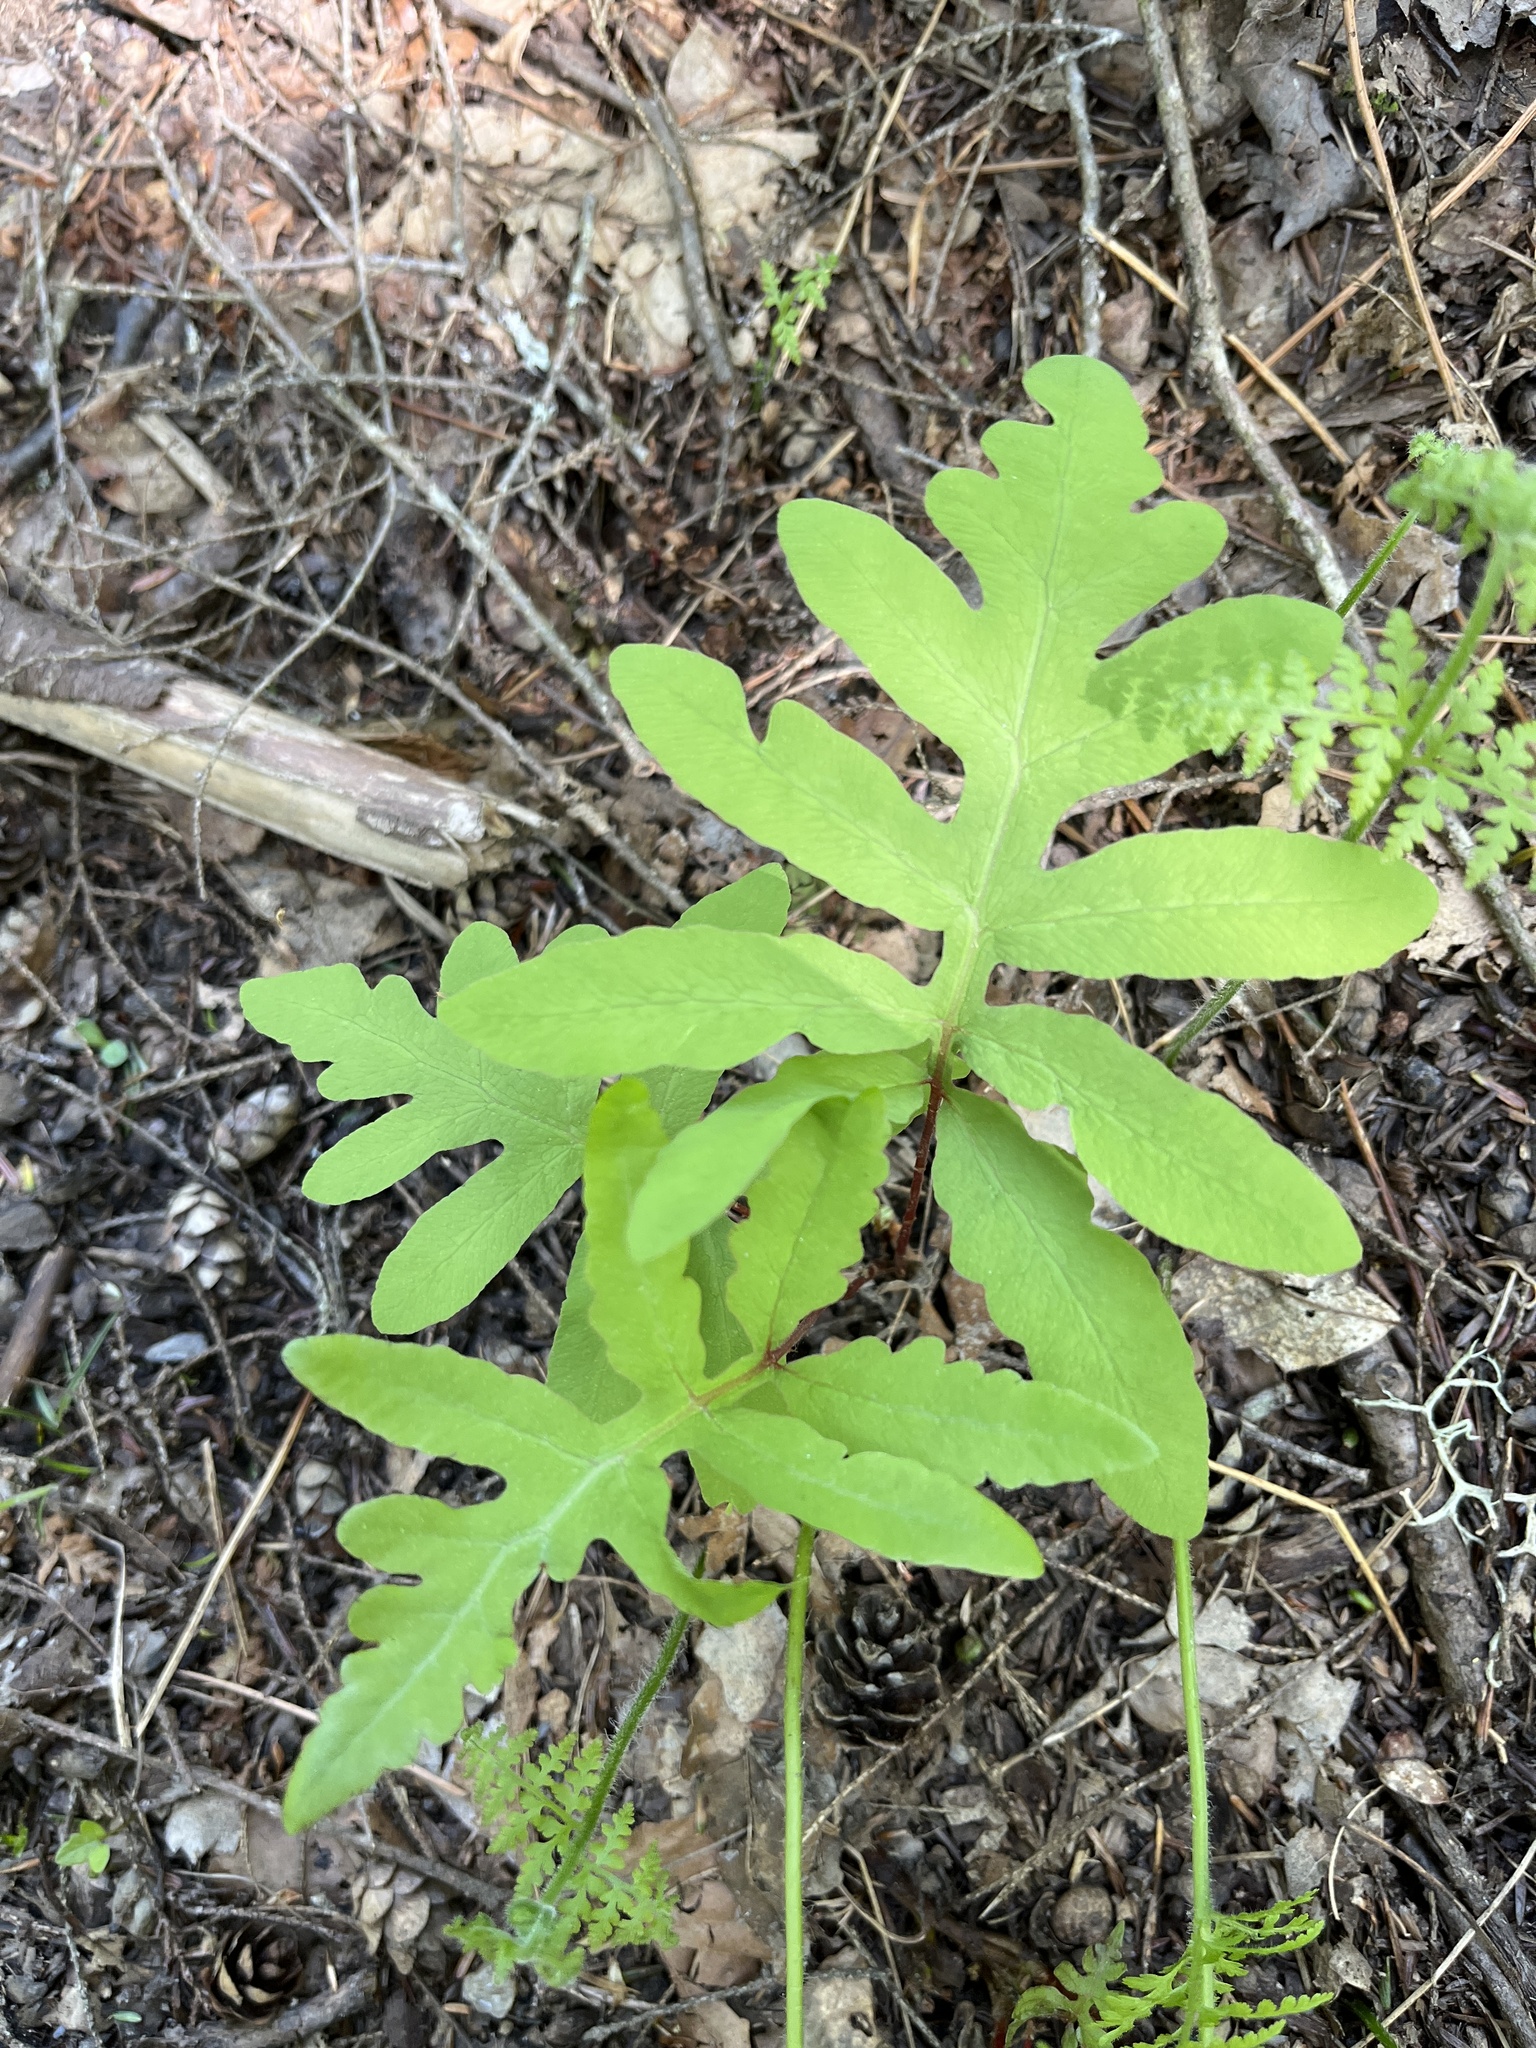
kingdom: Plantae
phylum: Tracheophyta
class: Polypodiopsida
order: Polypodiales
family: Onocleaceae
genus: Onoclea
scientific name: Onoclea sensibilis
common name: Sensitive fern
